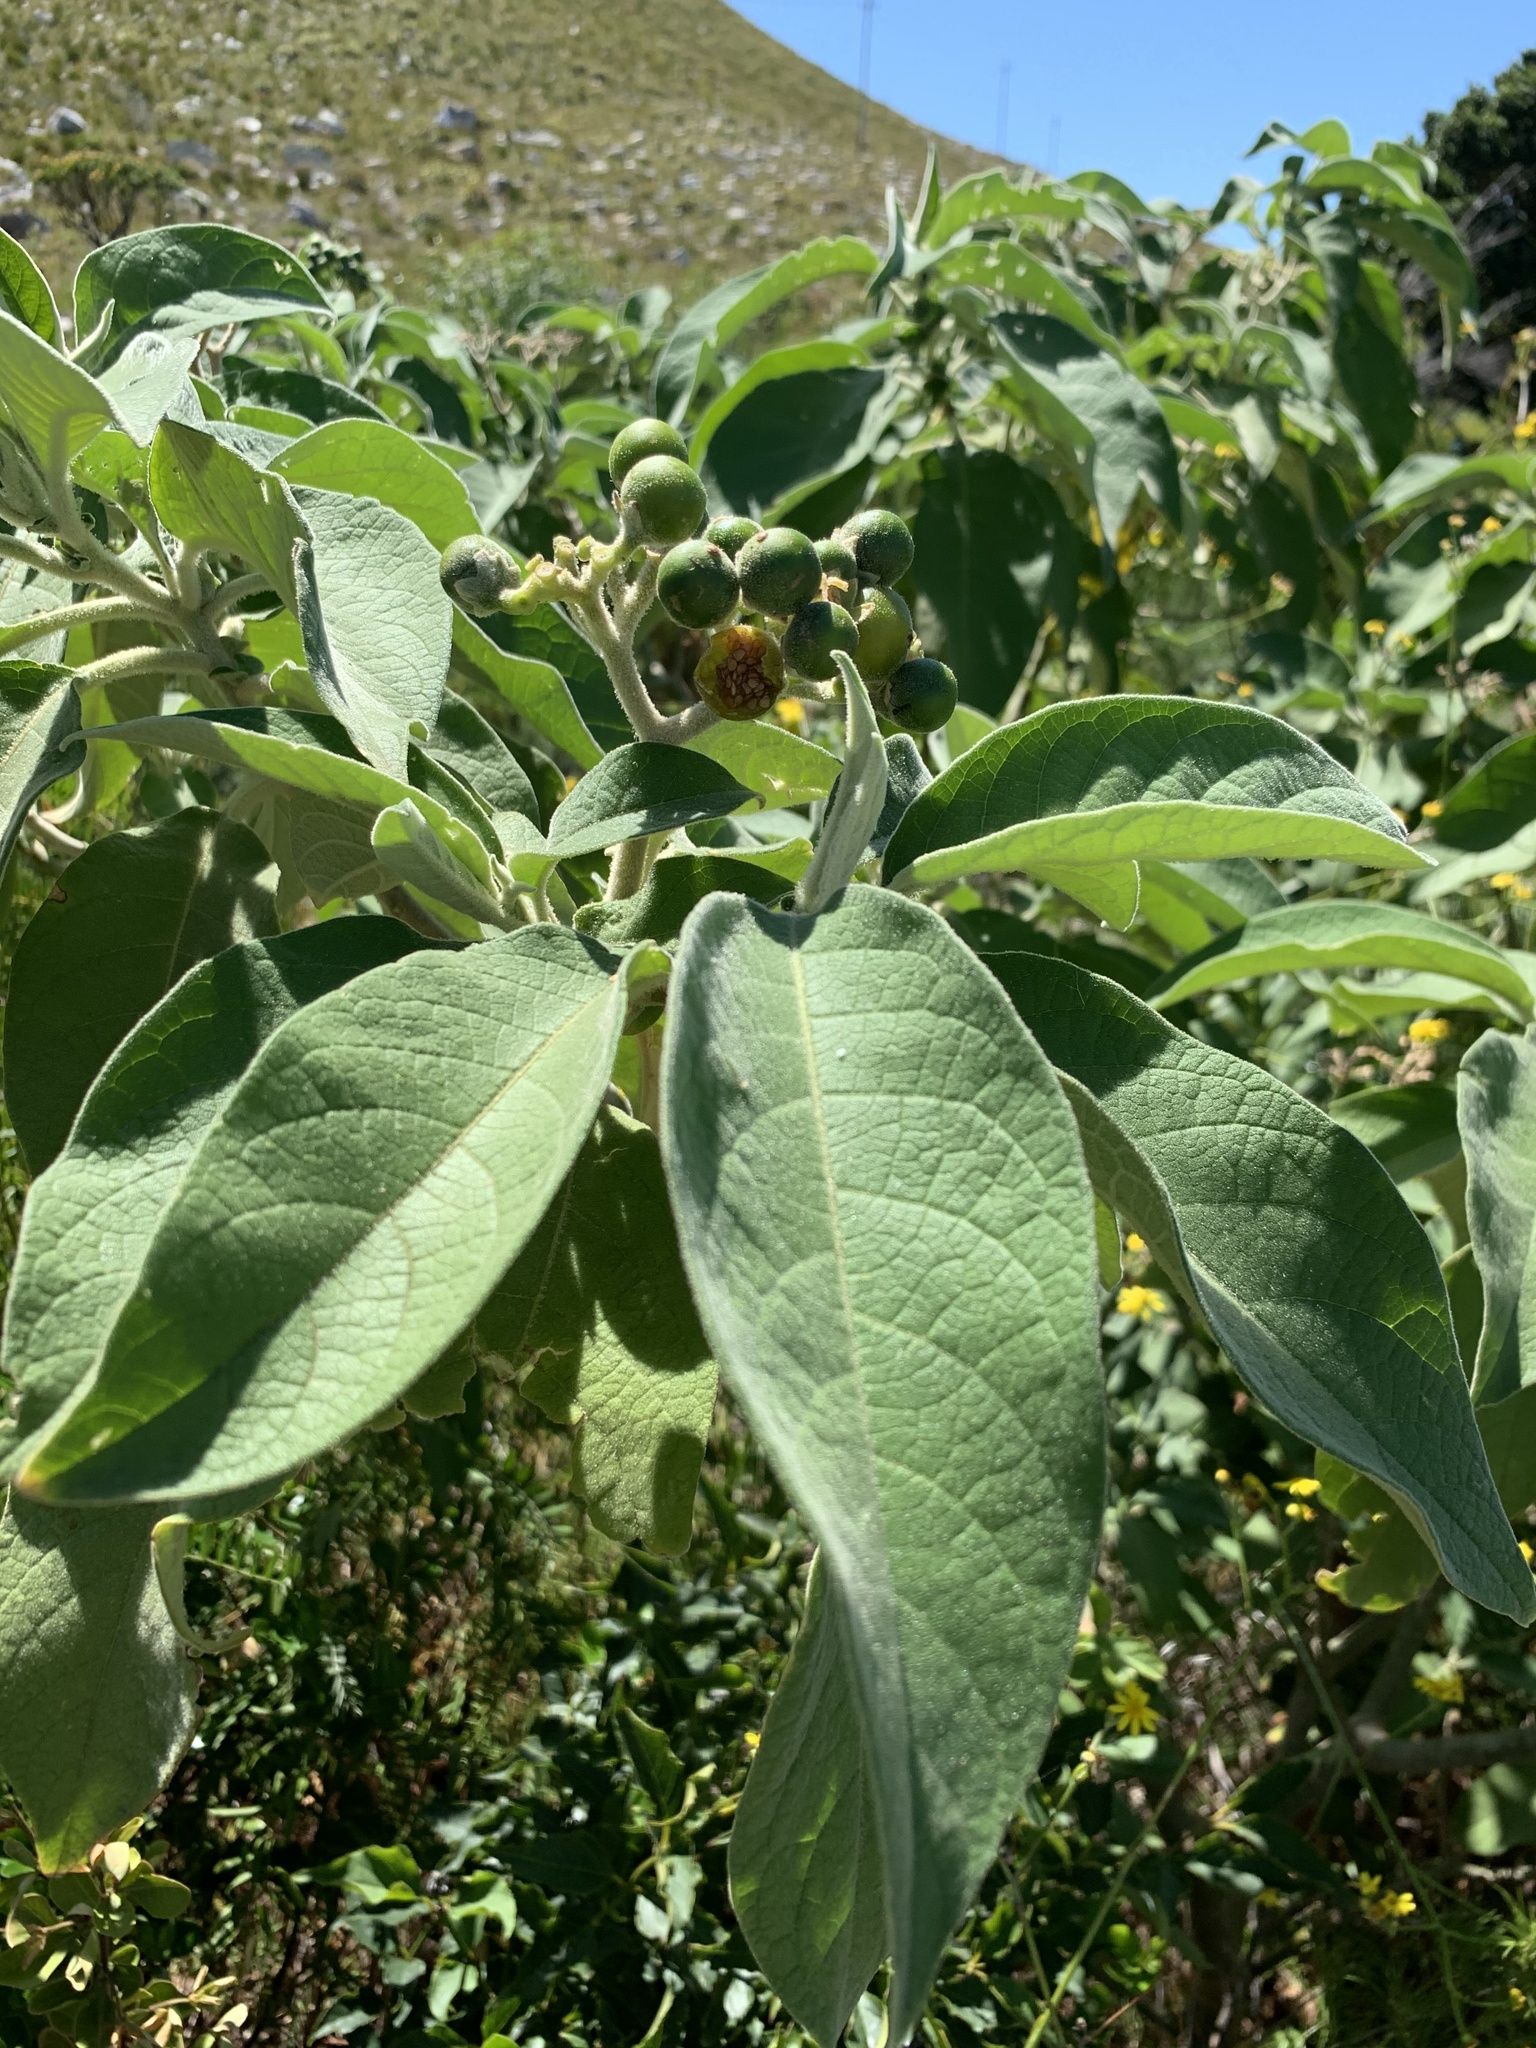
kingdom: Plantae
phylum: Tracheophyta
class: Magnoliopsida
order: Solanales
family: Solanaceae
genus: Solanum
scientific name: Solanum mauritianum
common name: Earleaf nightshade
